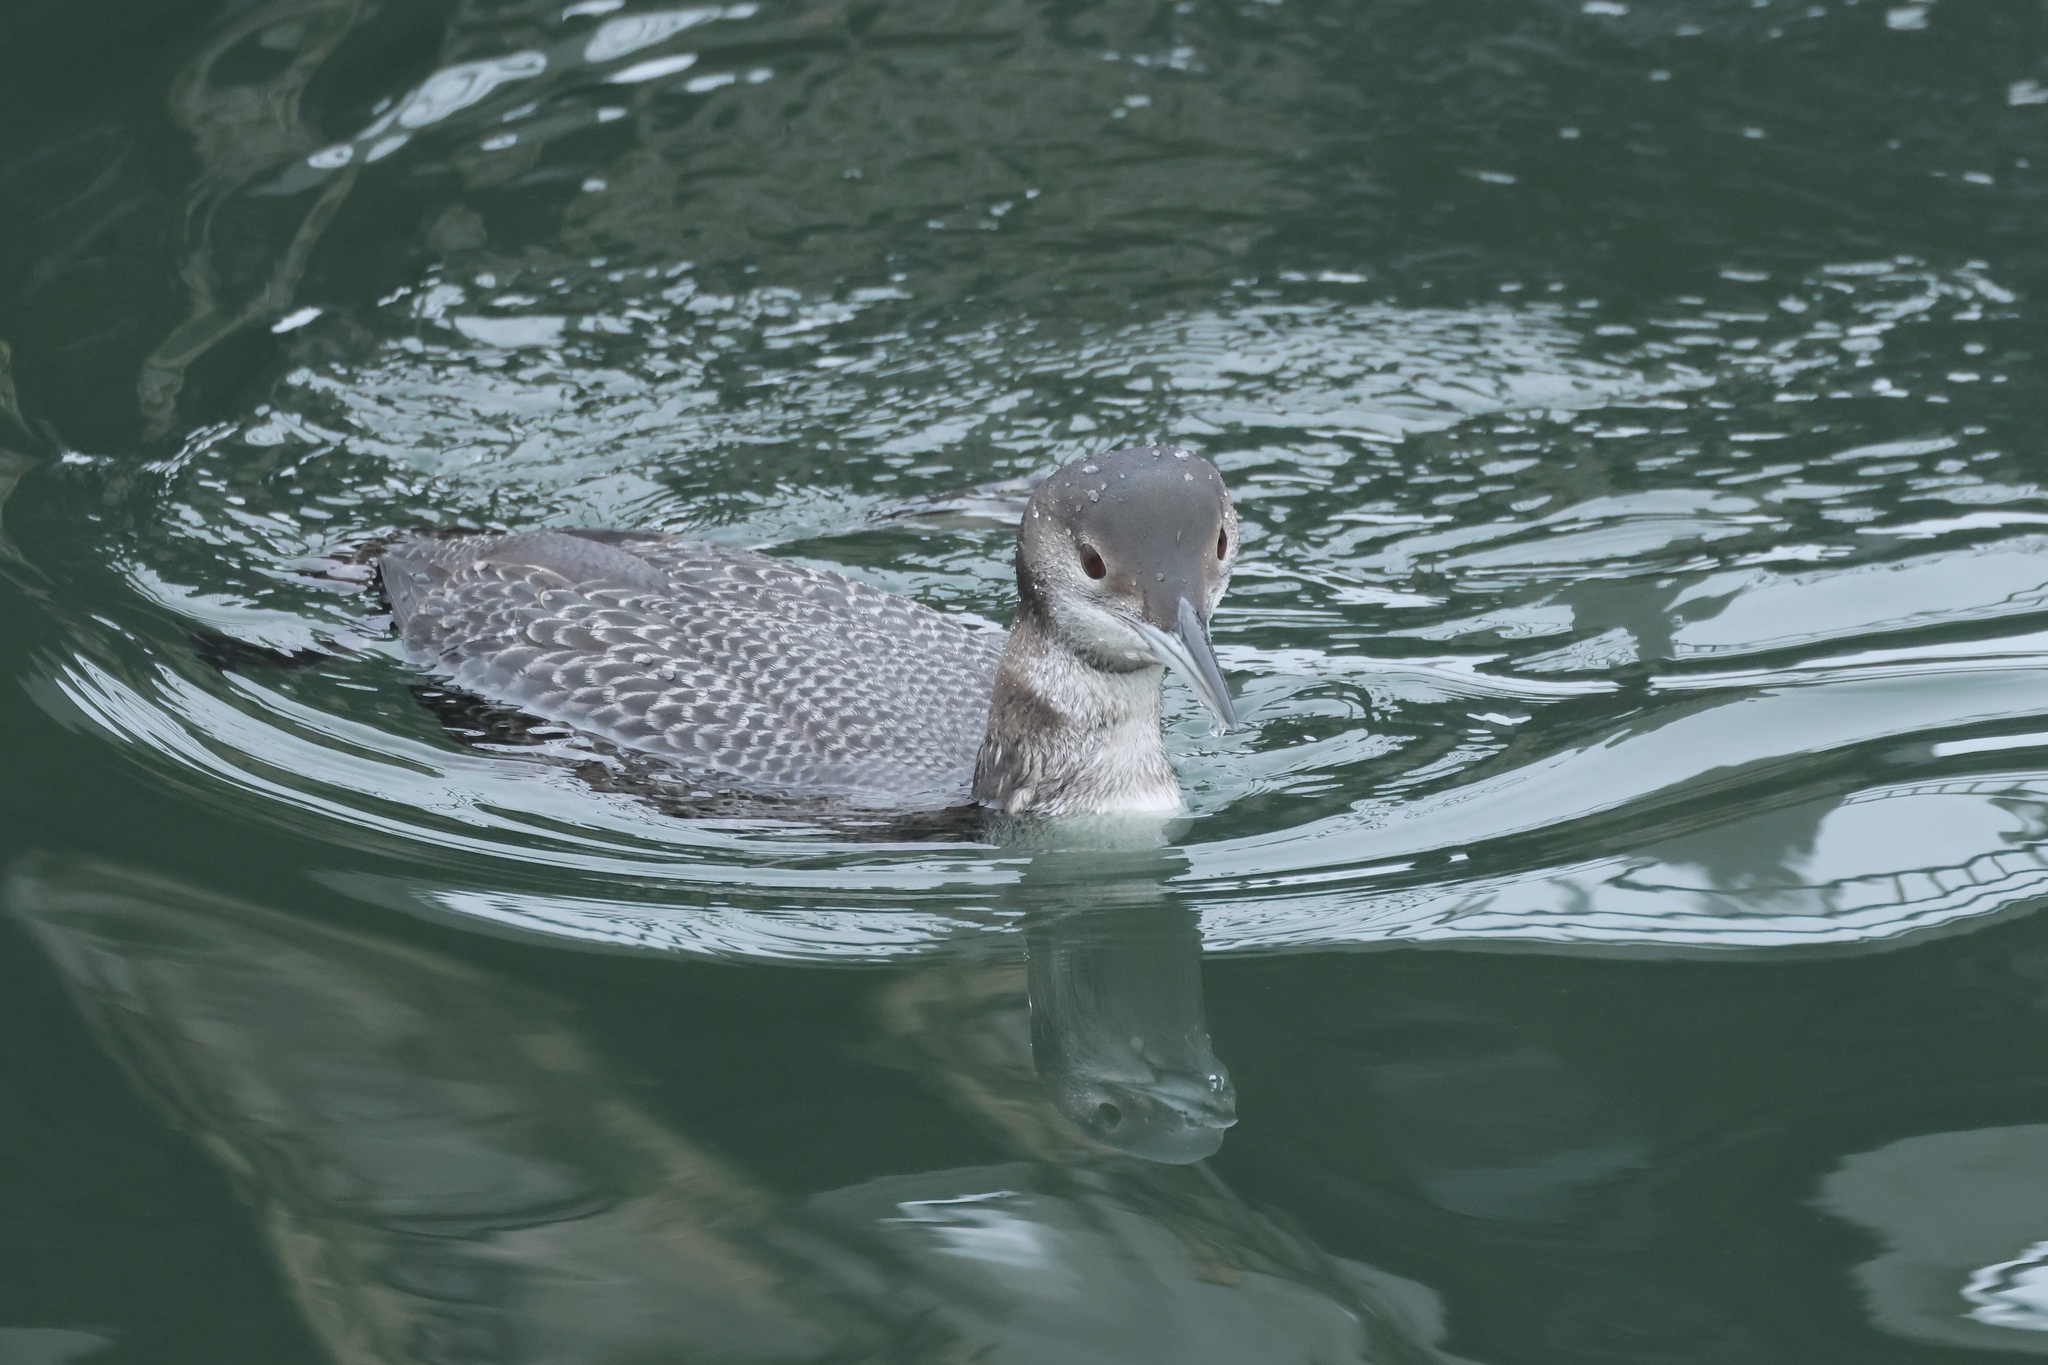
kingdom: Animalia
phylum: Chordata
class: Aves
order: Gaviiformes
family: Gaviidae
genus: Gavia
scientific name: Gavia immer
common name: Common loon
